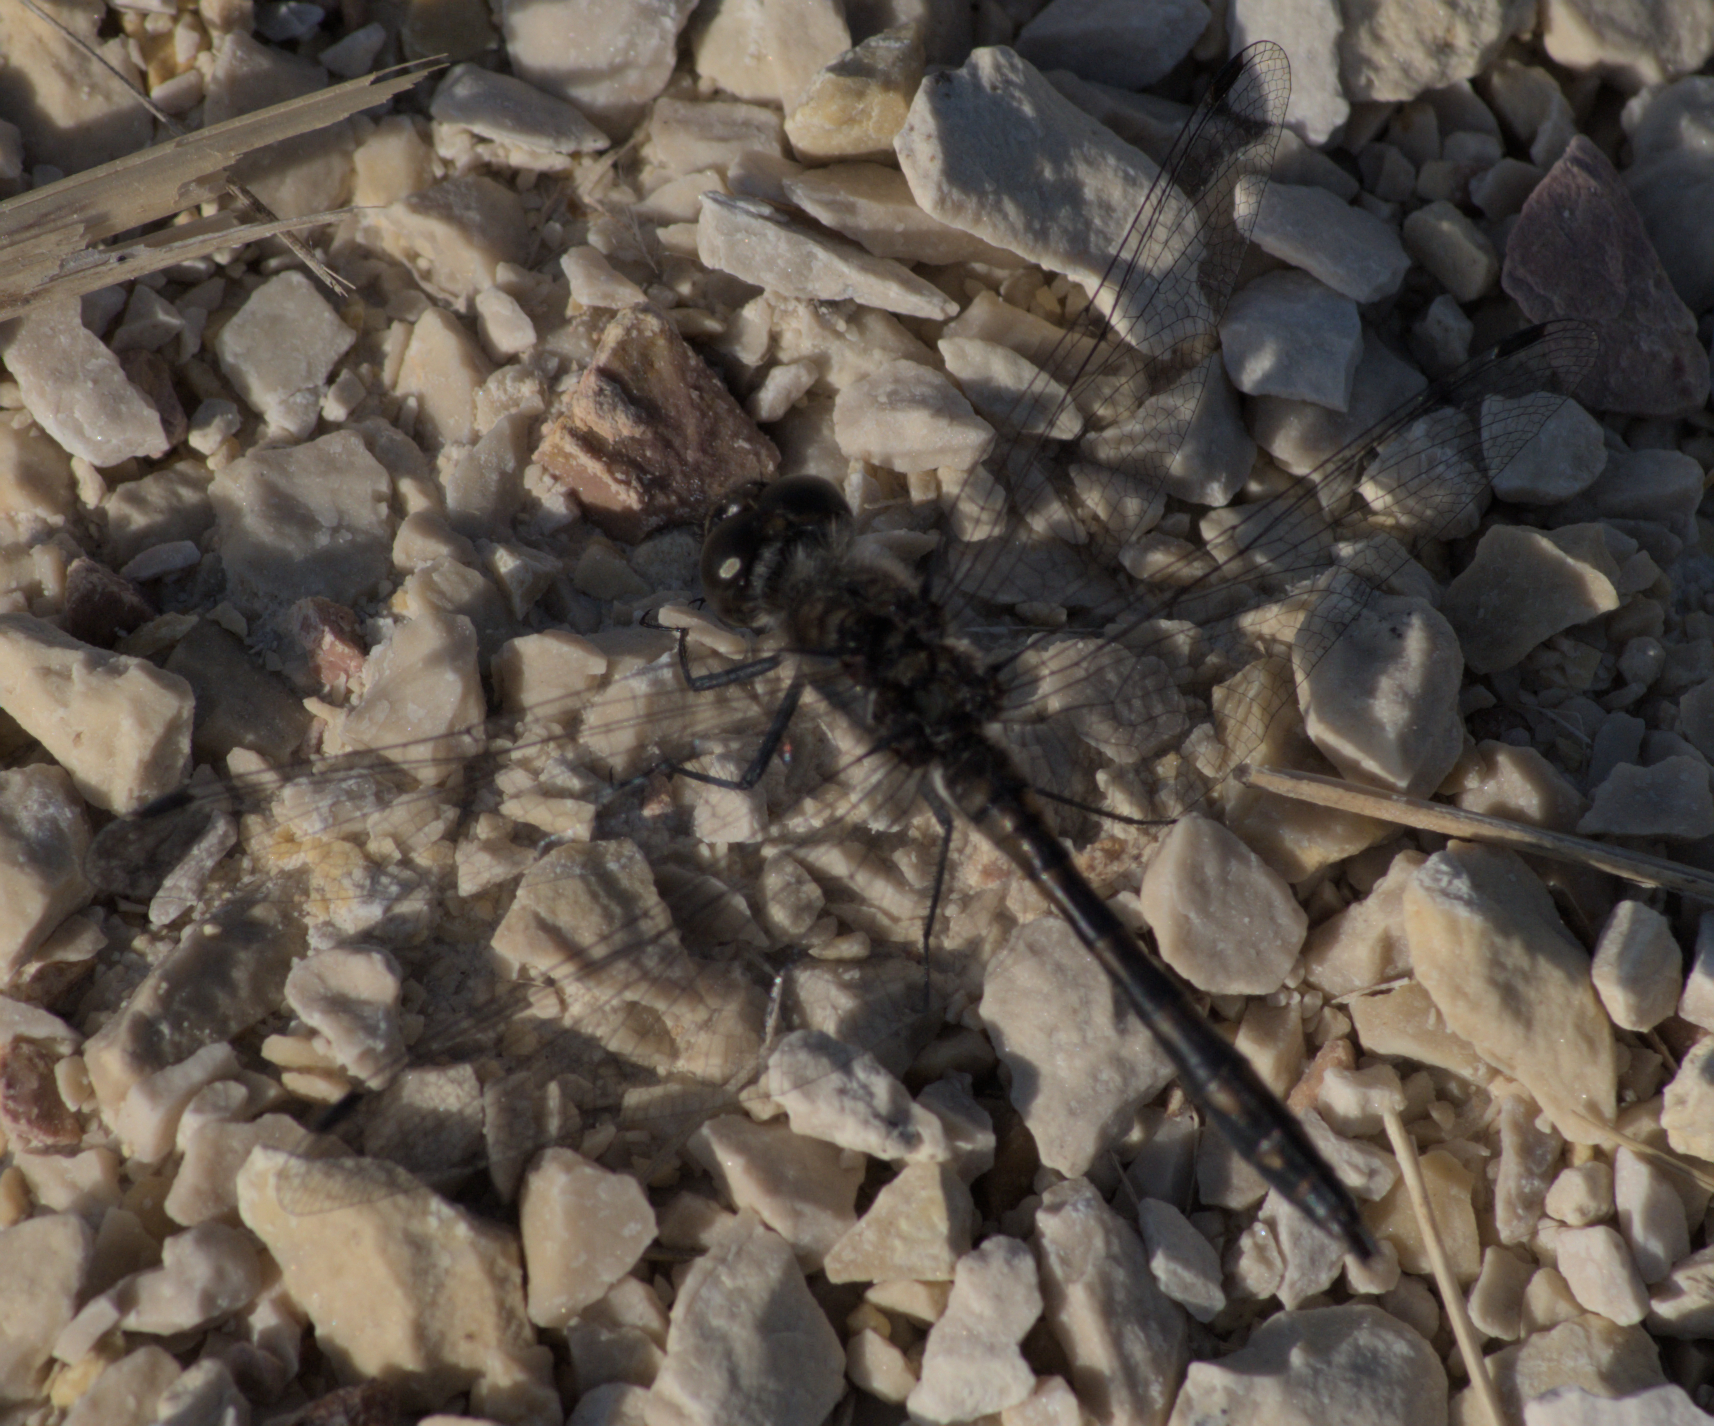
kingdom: Animalia
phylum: Arthropoda
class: Insecta
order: Odonata
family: Libellulidae
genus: Sympetrum
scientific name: Sympetrum danae
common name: Black darter
